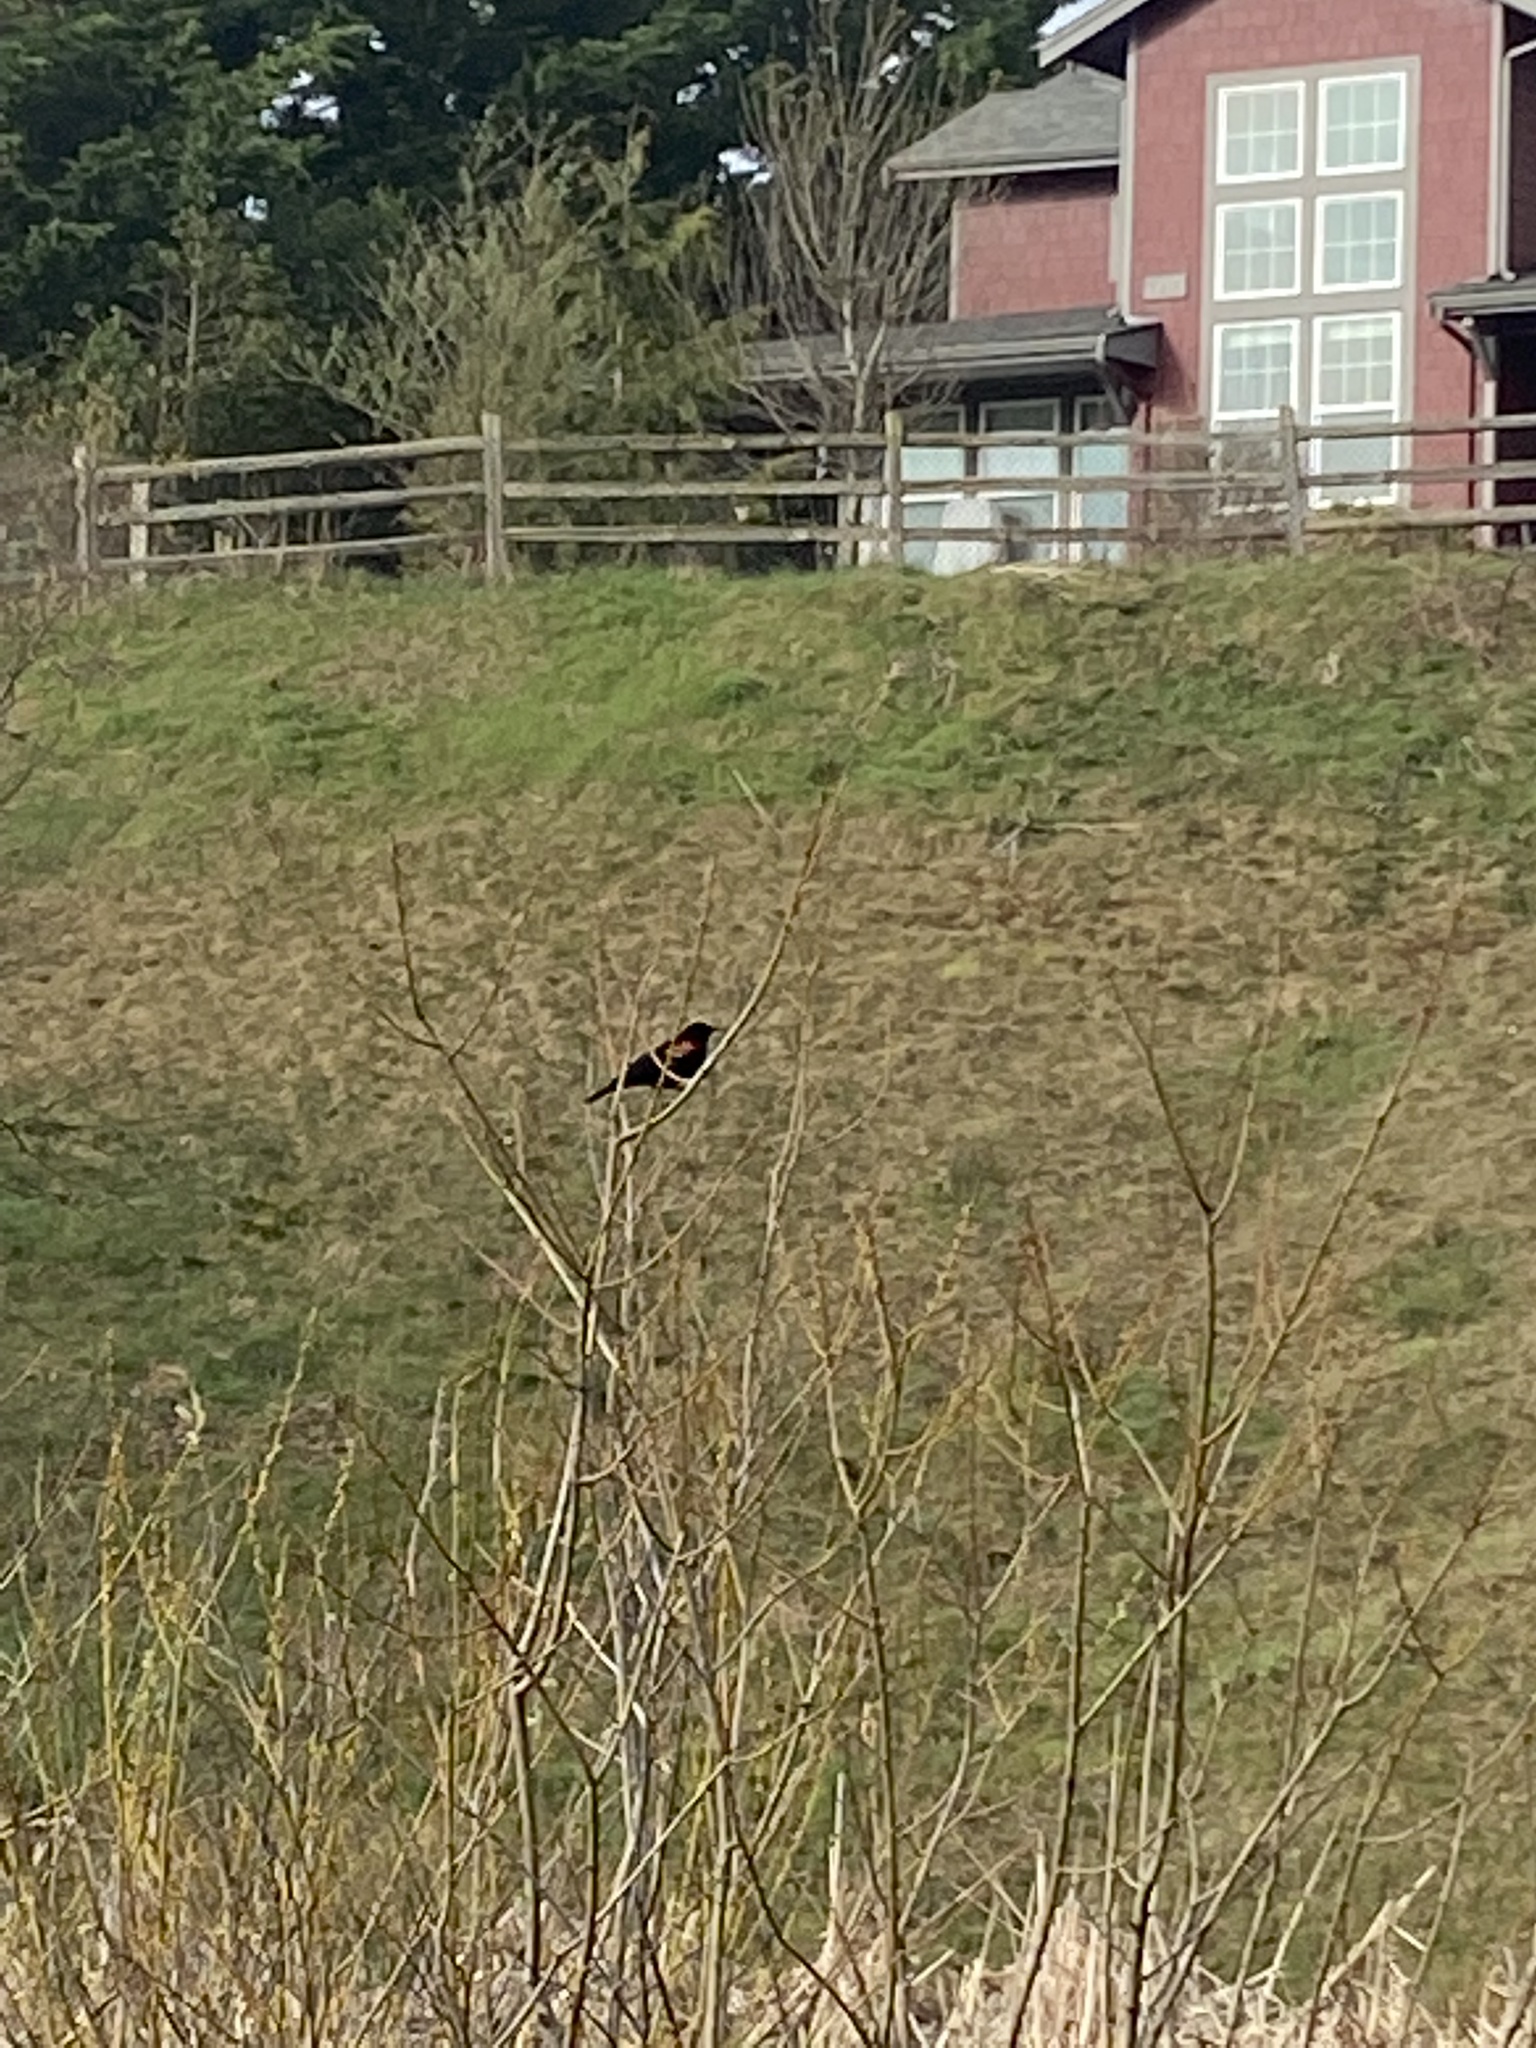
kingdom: Animalia
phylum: Chordata
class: Aves
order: Passeriformes
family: Icteridae
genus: Agelaius
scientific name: Agelaius phoeniceus
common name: Red-winged blackbird
